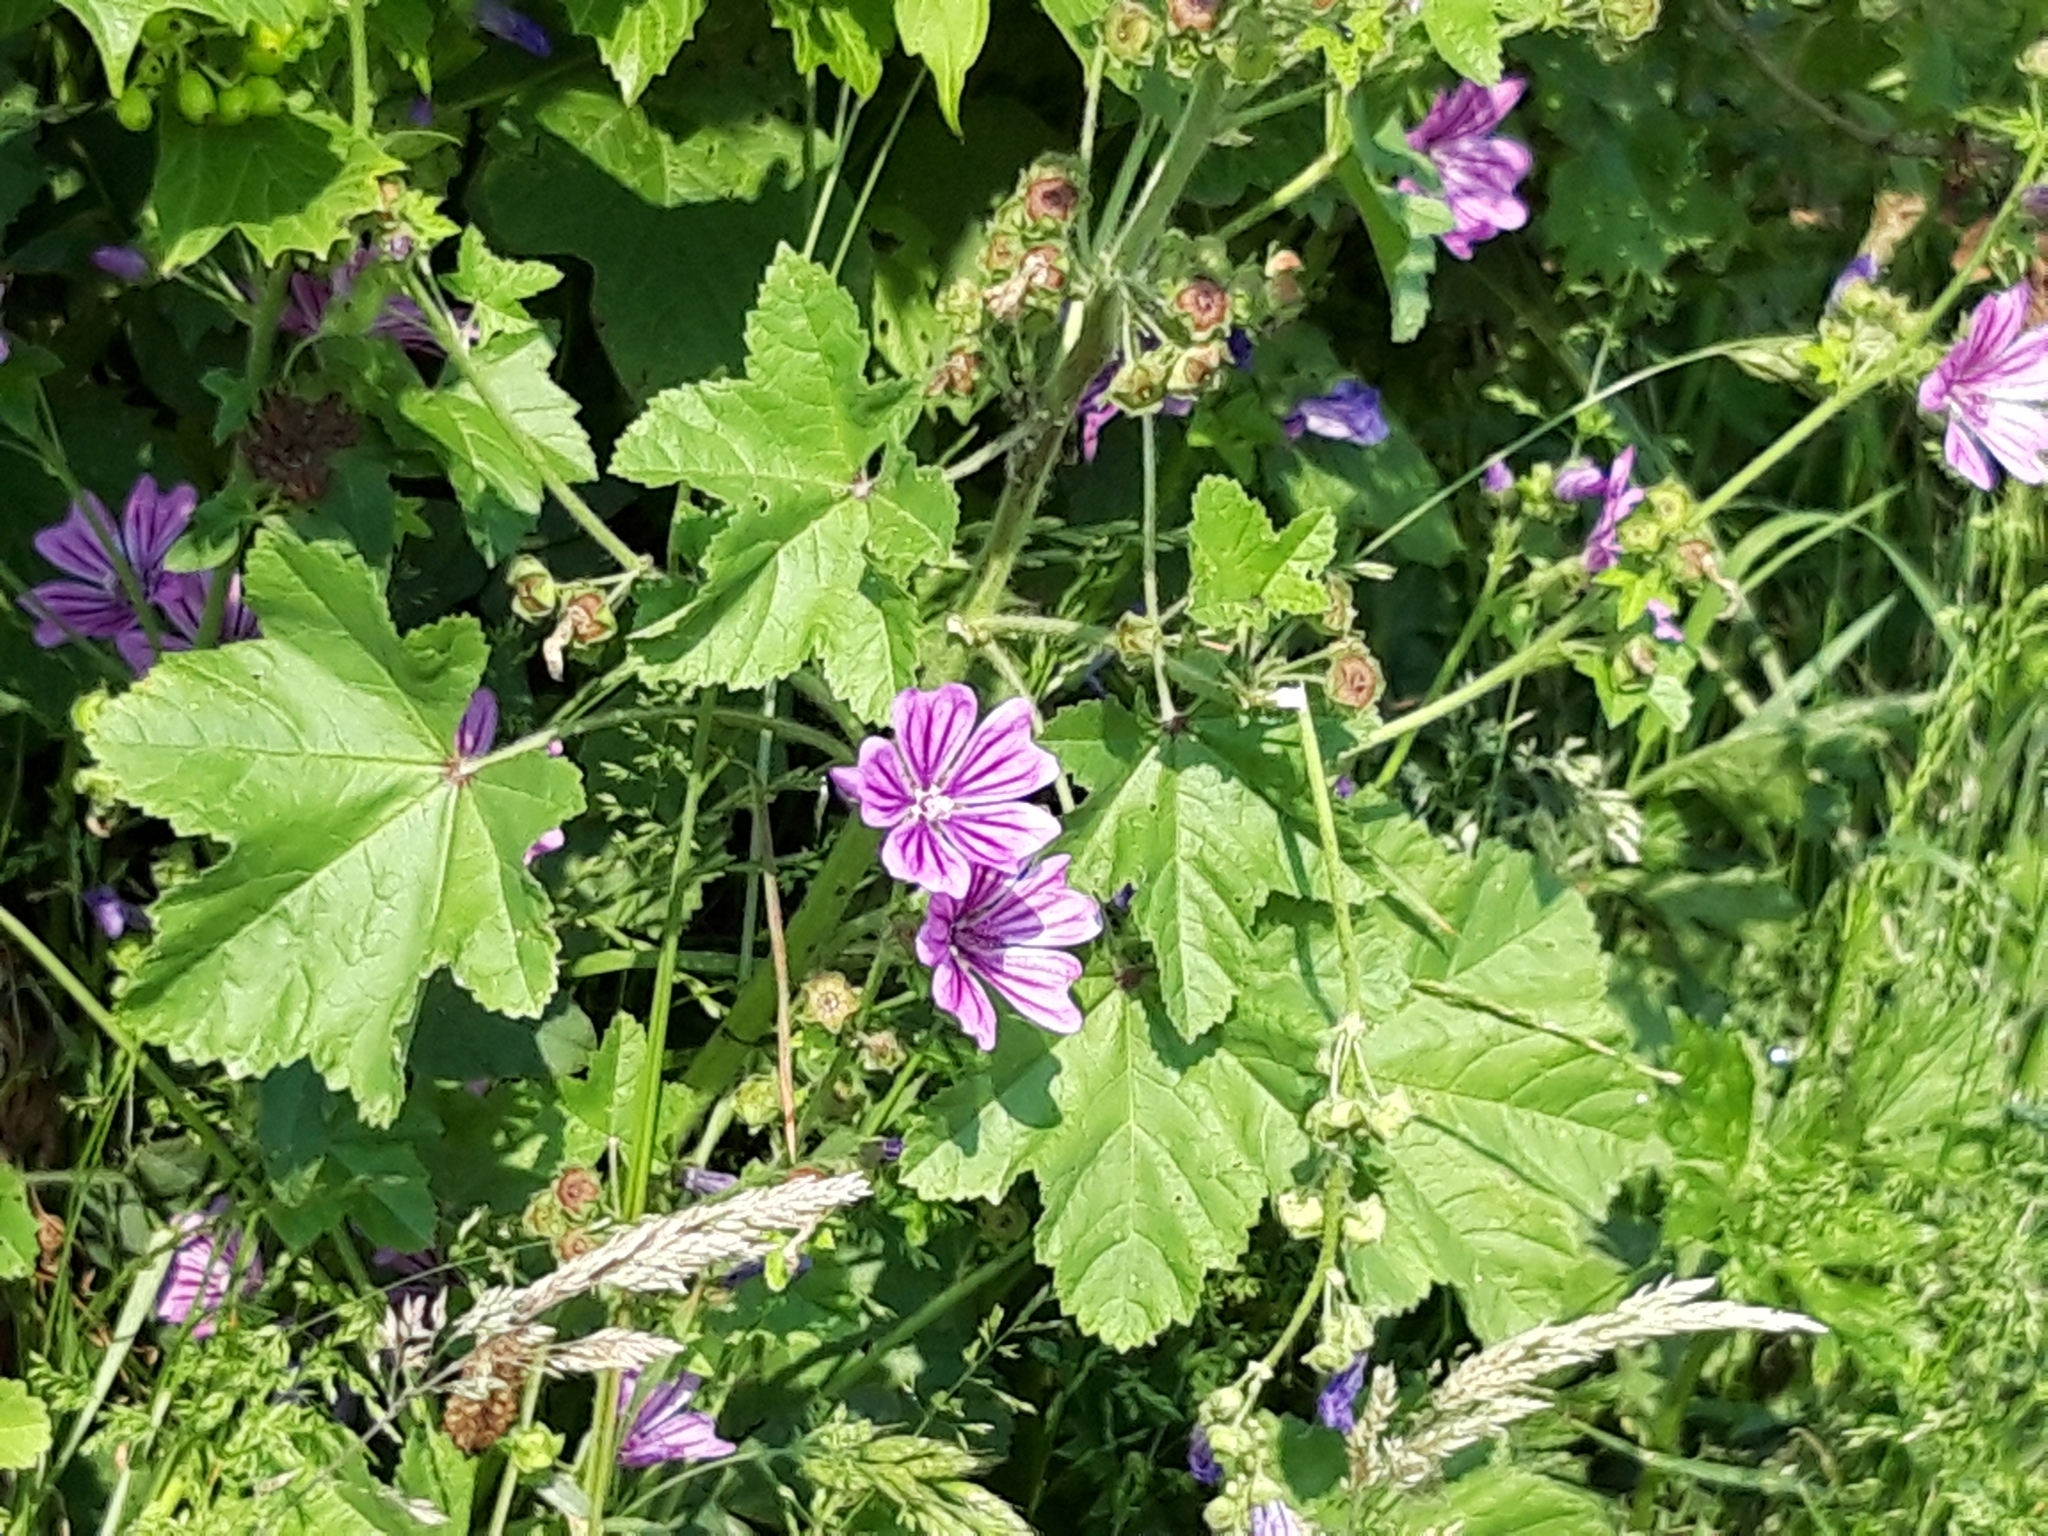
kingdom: Plantae
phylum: Tracheophyta
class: Magnoliopsida
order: Malvales
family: Malvaceae
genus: Malva
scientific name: Malva sylvestris
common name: Common mallow
